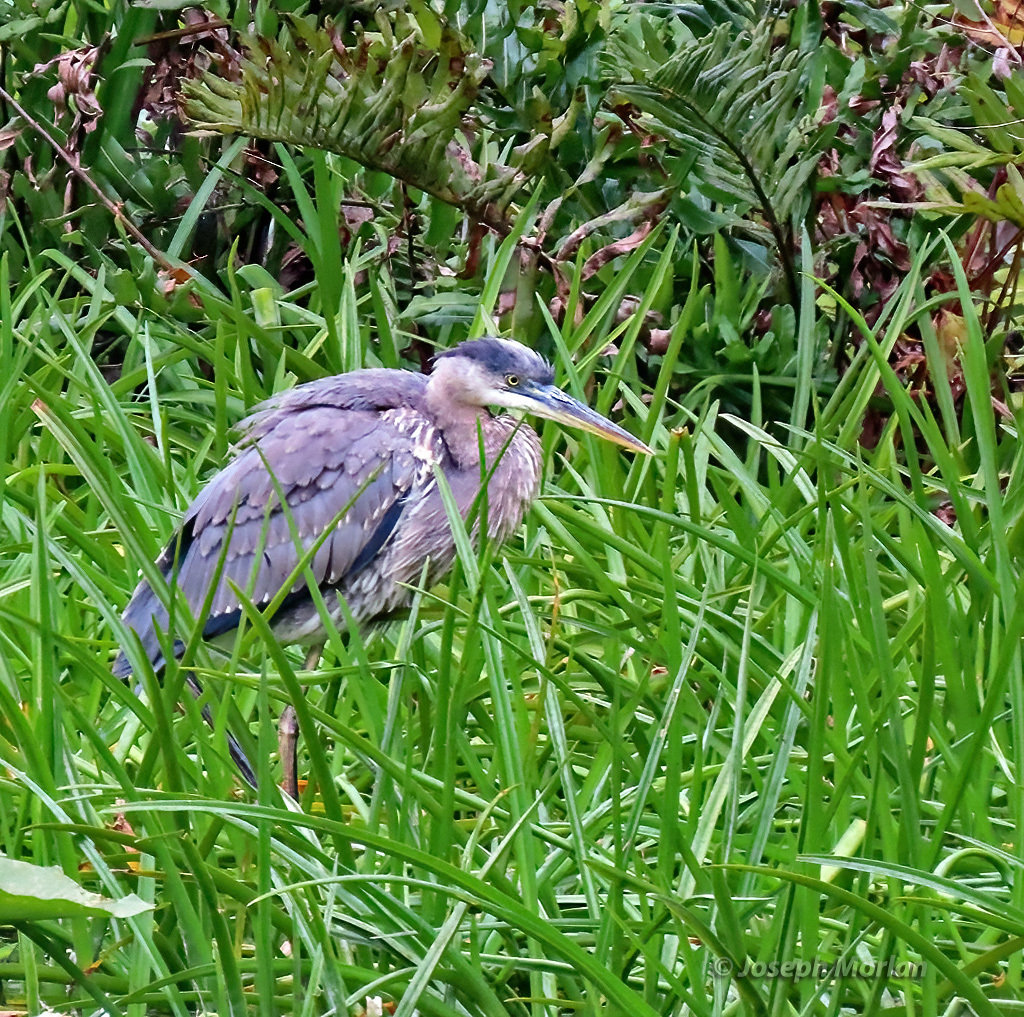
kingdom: Animalia
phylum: Chordata
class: Aves
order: Pelecaniformes
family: Ardeidae
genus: Ardea
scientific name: Ardea herodias
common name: Great blue heron
